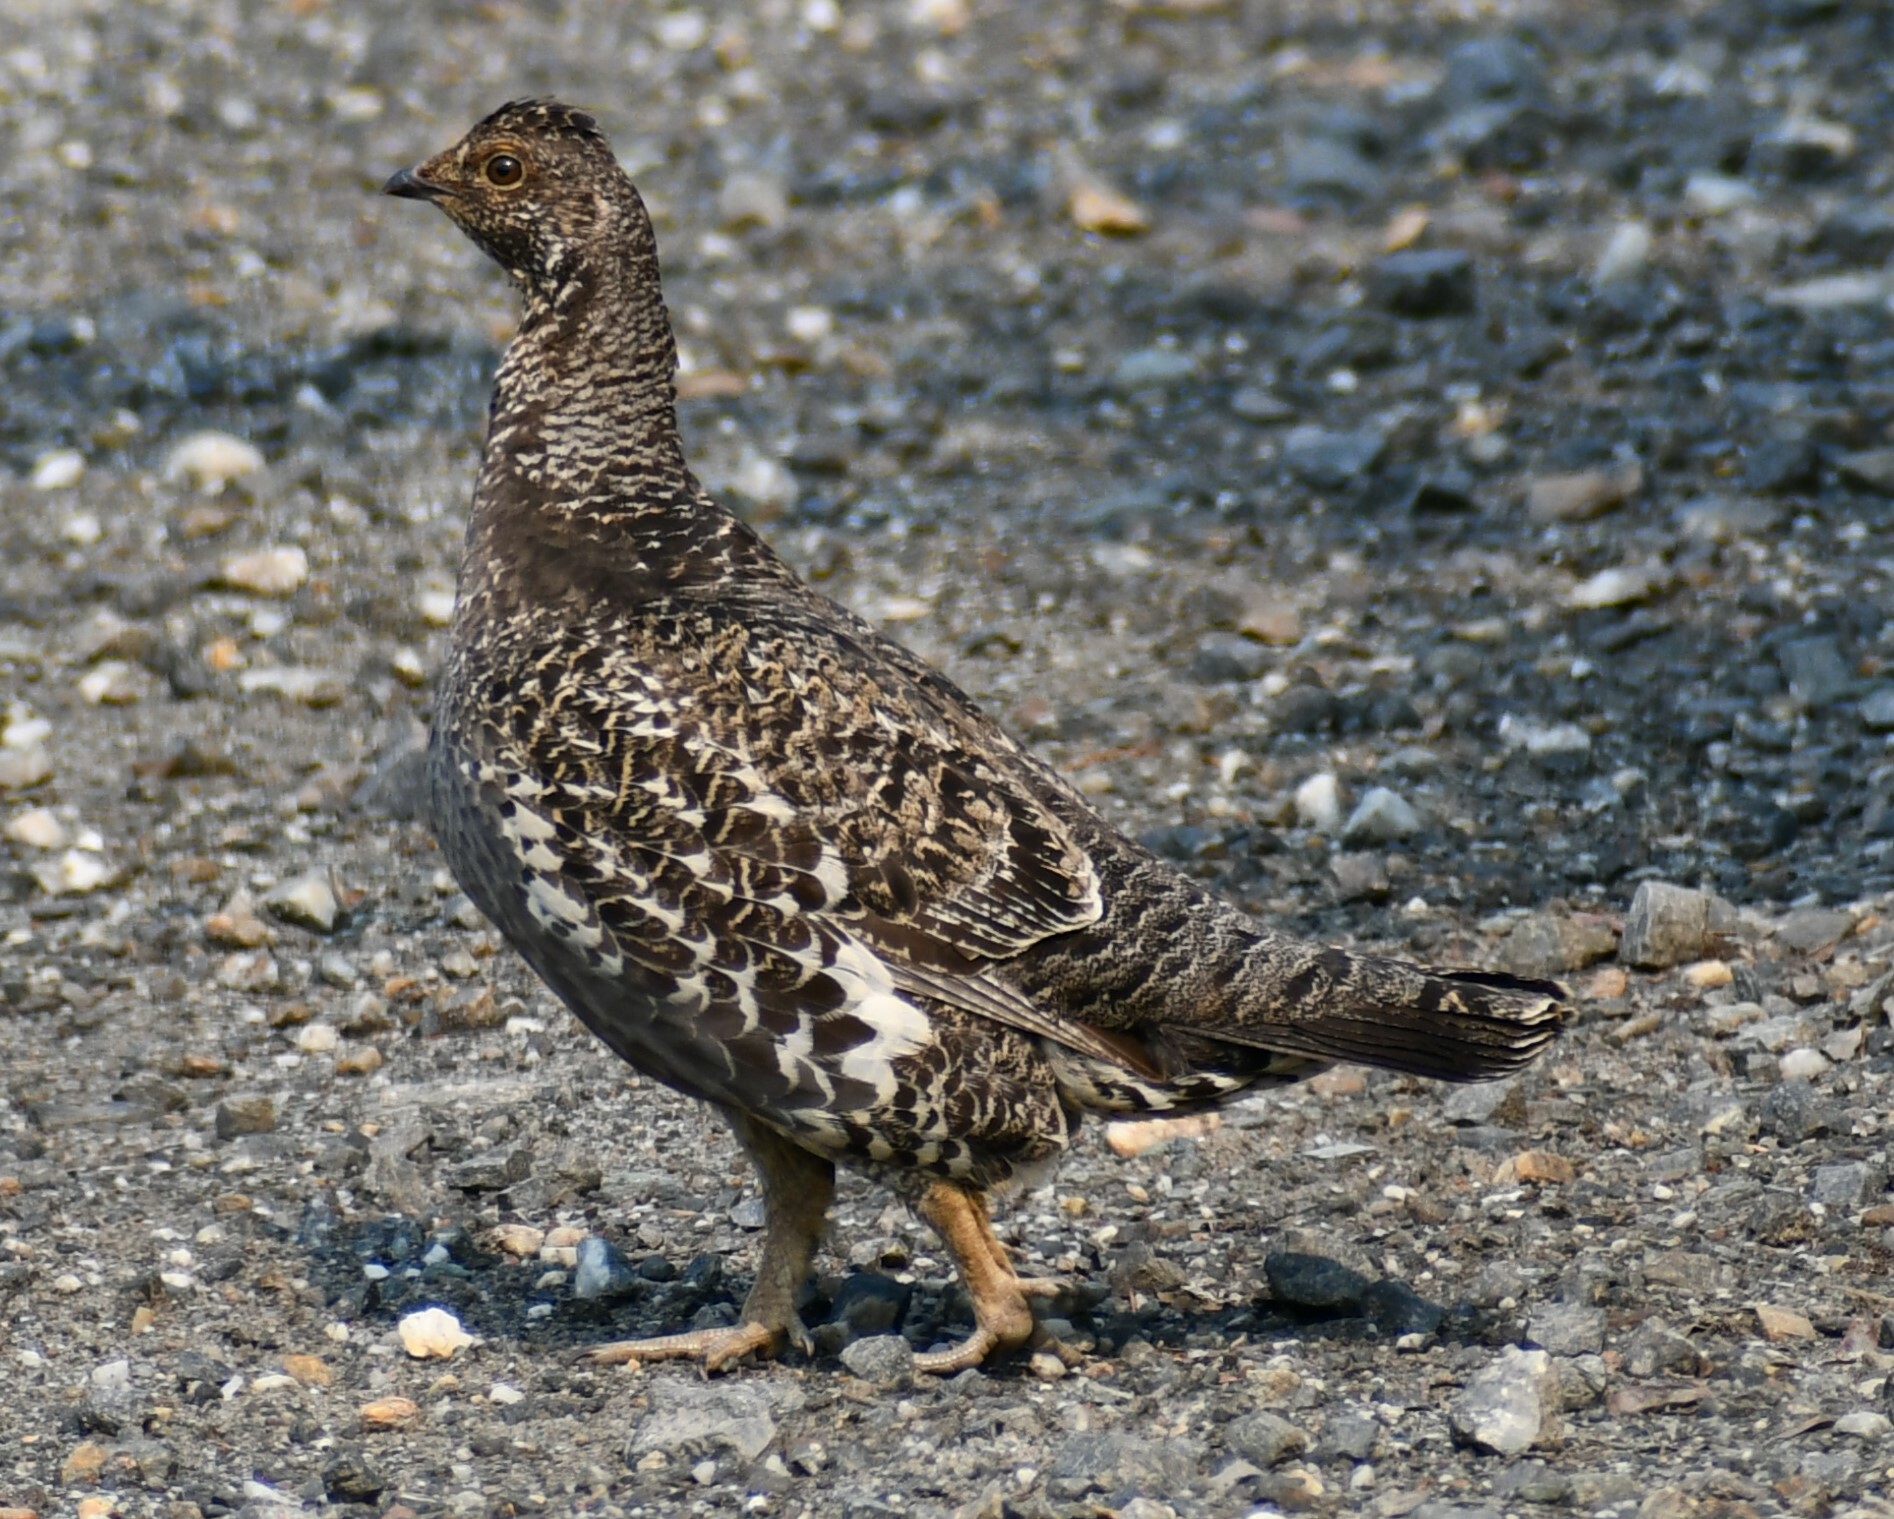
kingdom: Animalia
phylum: Chordata
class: Aves
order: Galliformes
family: Phasianidae
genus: Dendragapus
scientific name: Dendragapus obscurus
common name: Dusky grouse
